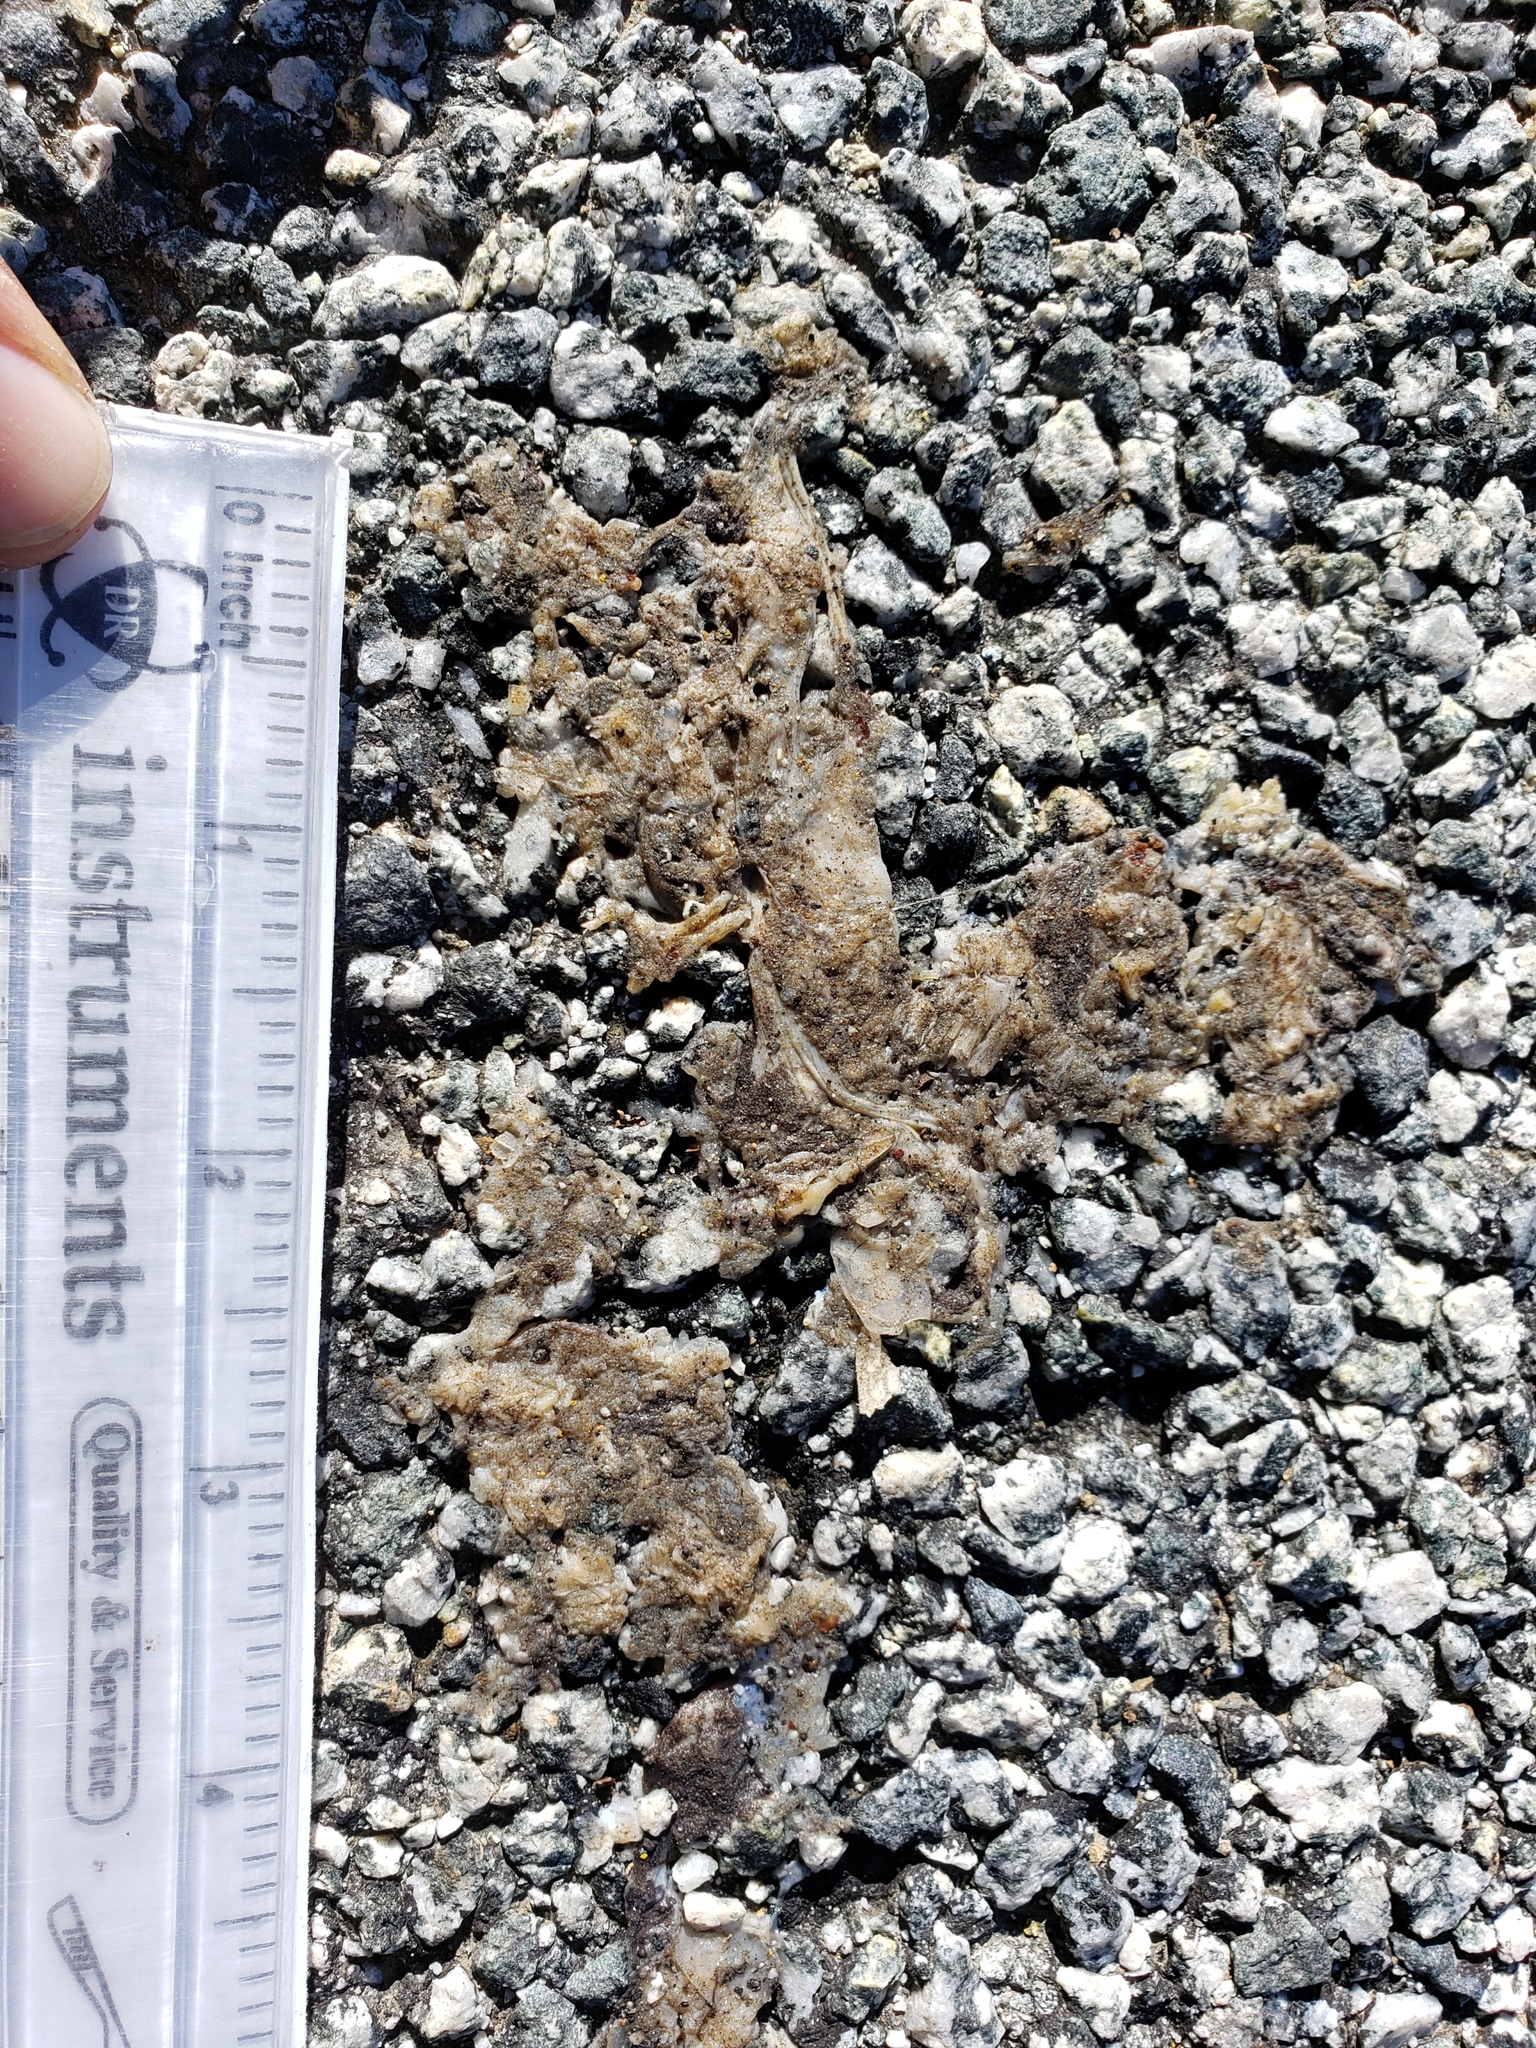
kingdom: Animalia
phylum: Chordata
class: Amphibia
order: Caudata
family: Salamandridae
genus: Taricha
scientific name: Taricha
